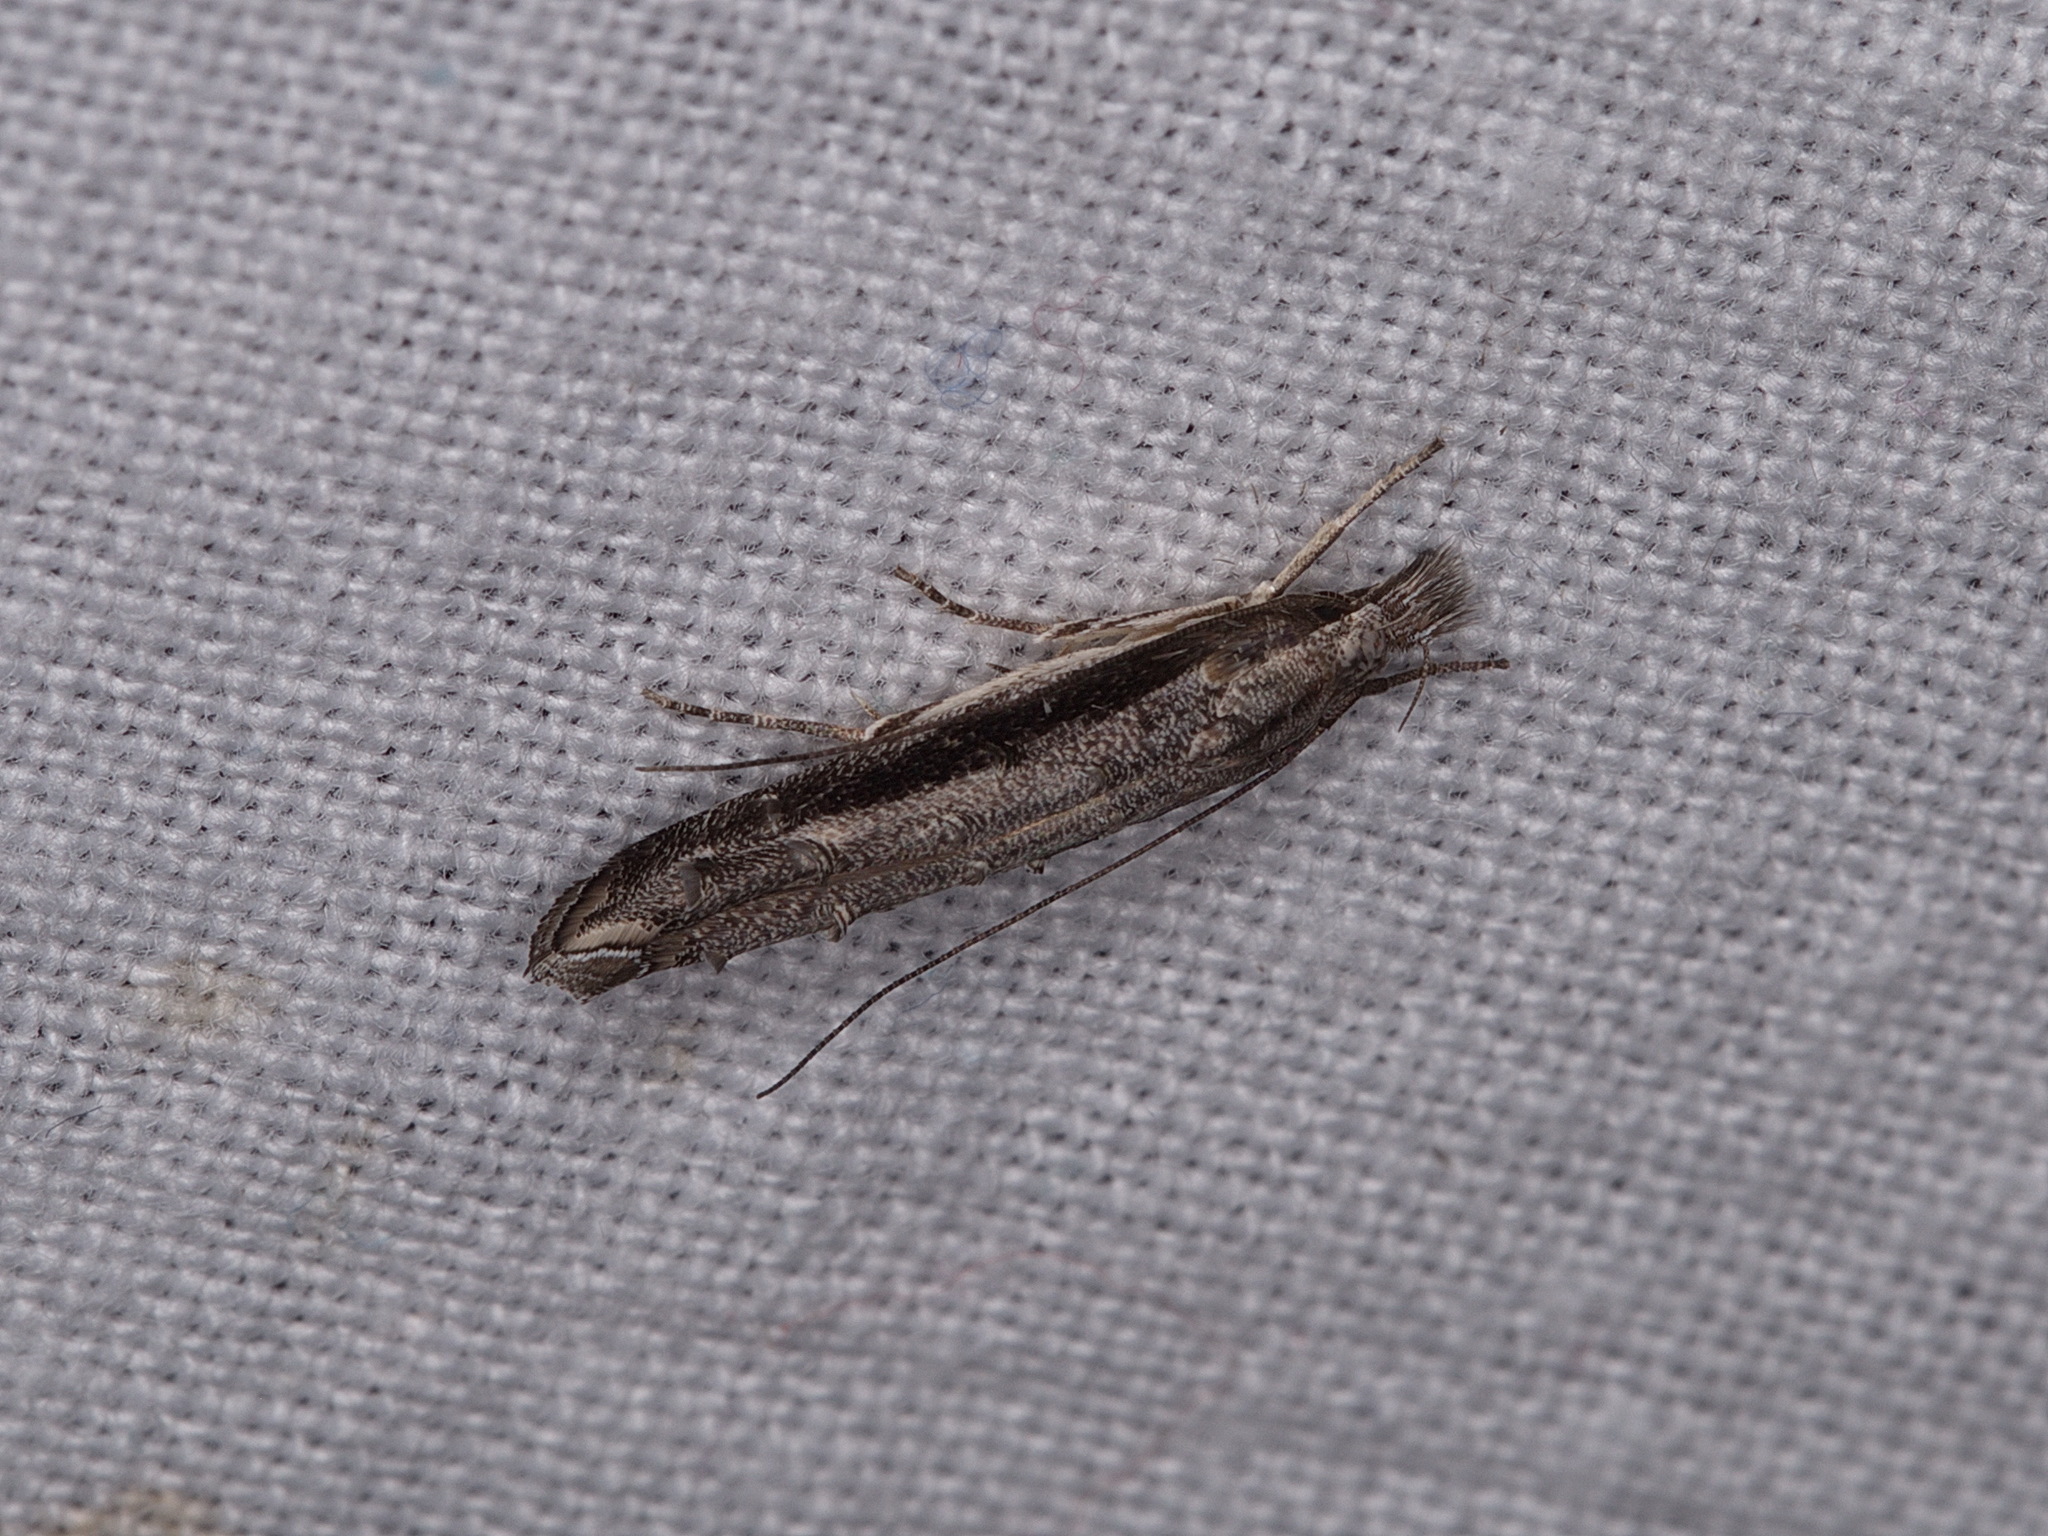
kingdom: Animalia
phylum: Arthropoda
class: Insecta
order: Lepidoptera
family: Elachistidae
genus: Trachydora
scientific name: Trachydora musaea
